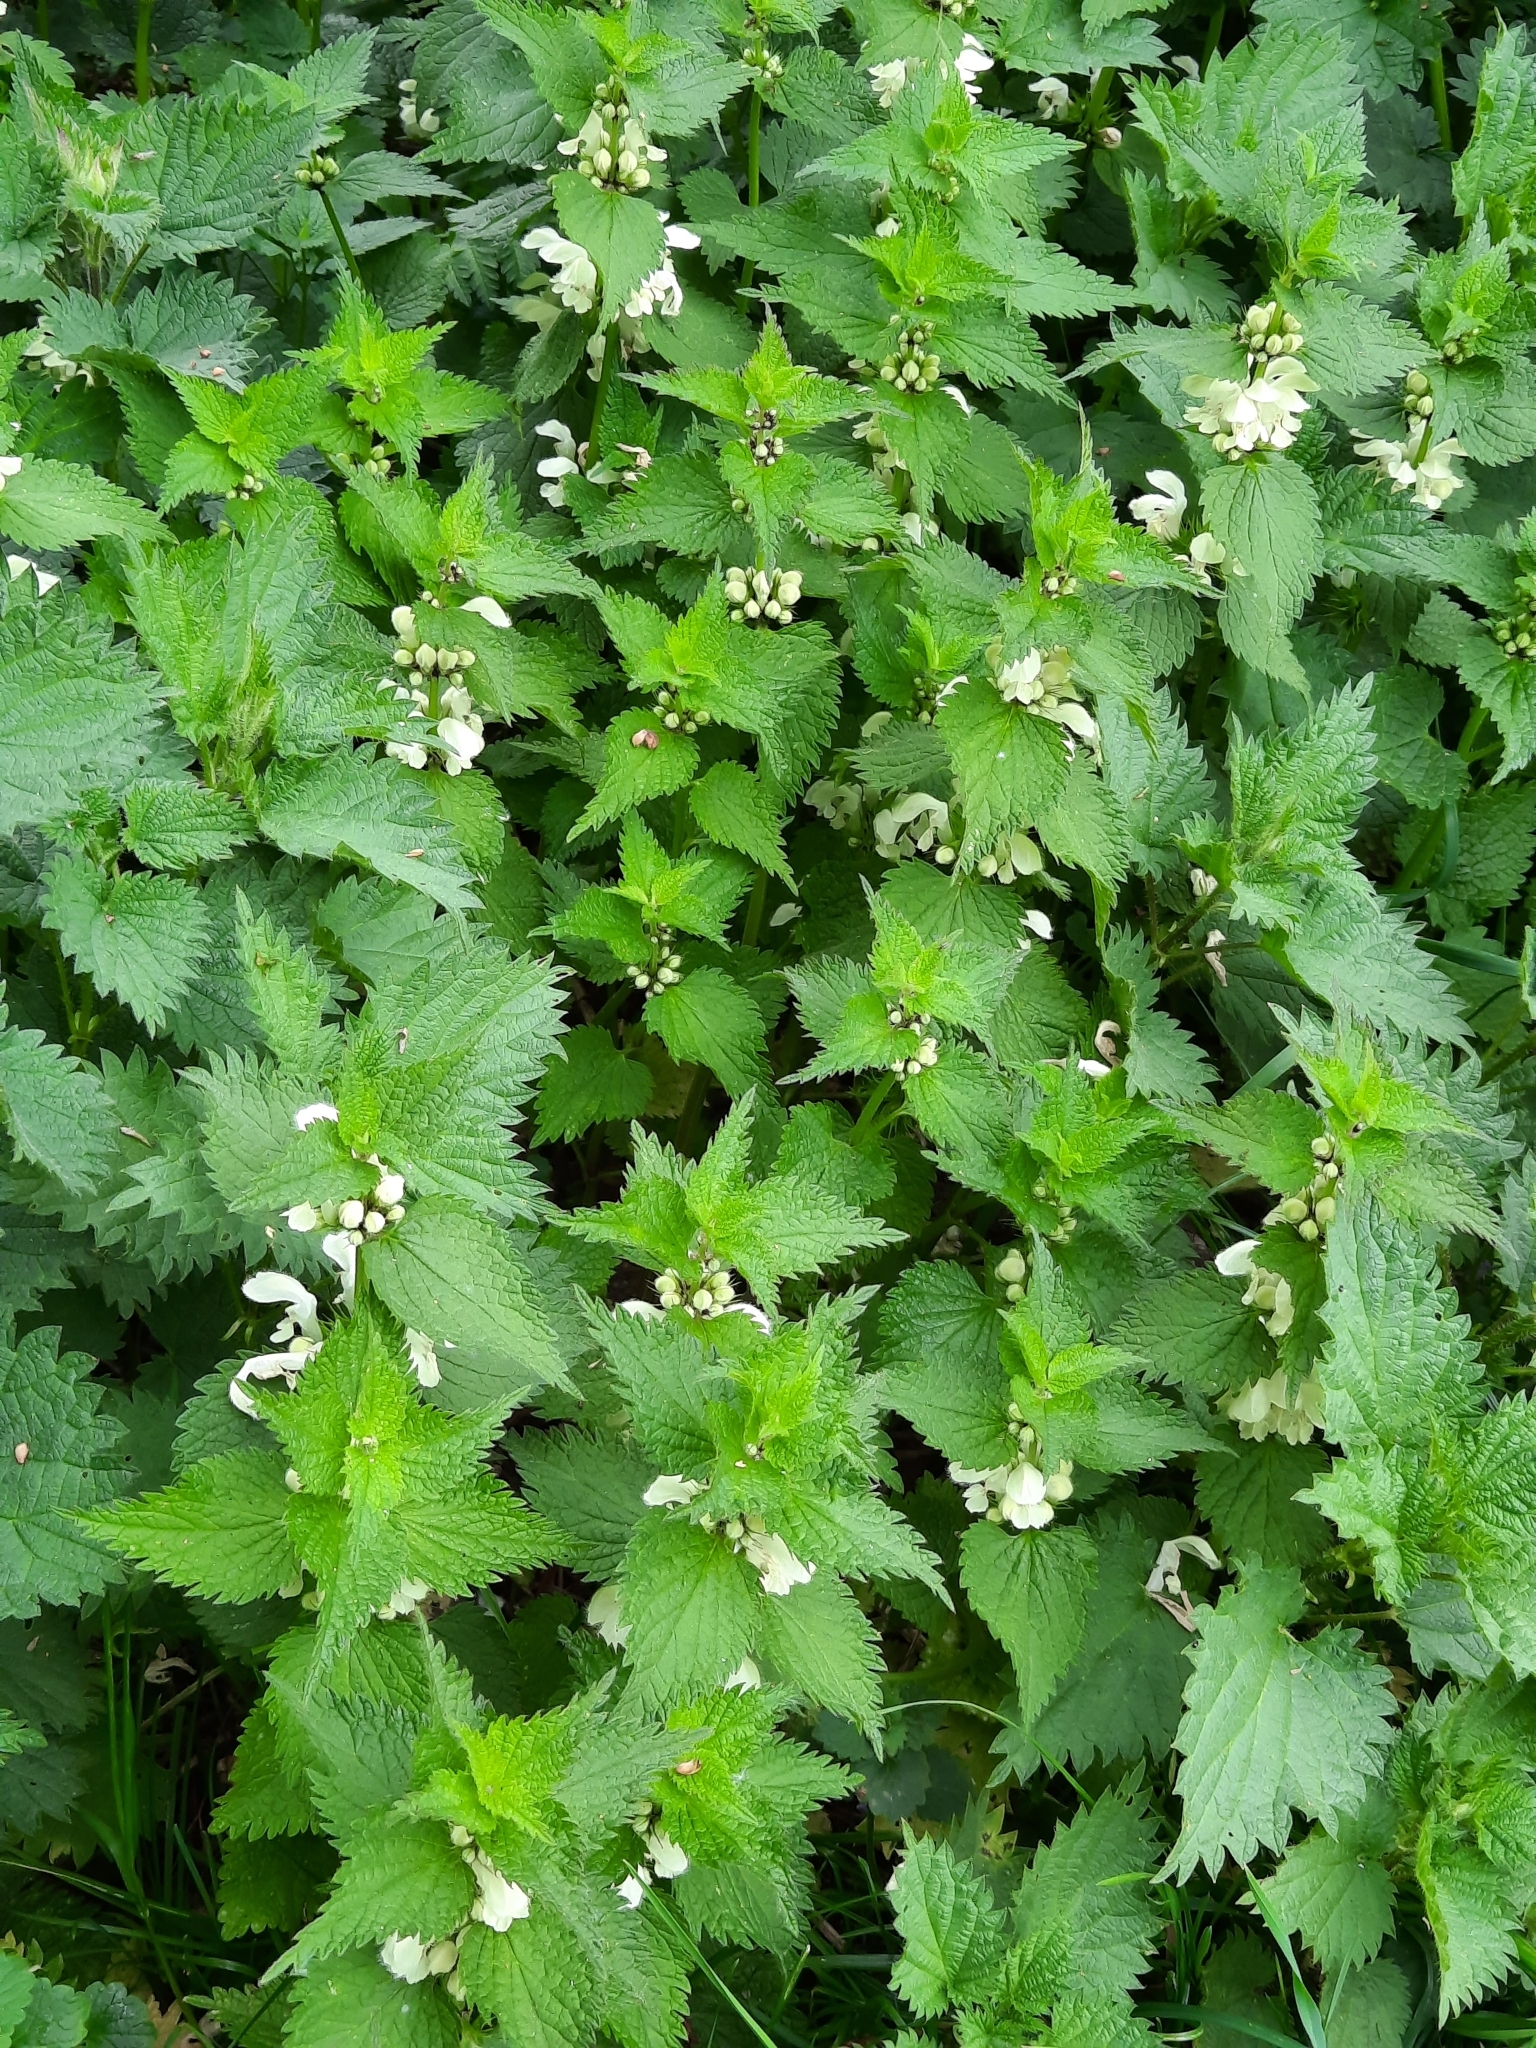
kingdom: Plantae
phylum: Tracheophyta
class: Magnoliopsida
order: Lamiales
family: Lamiaceae
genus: Lamium
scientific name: Lamium album
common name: White dead-nettle
